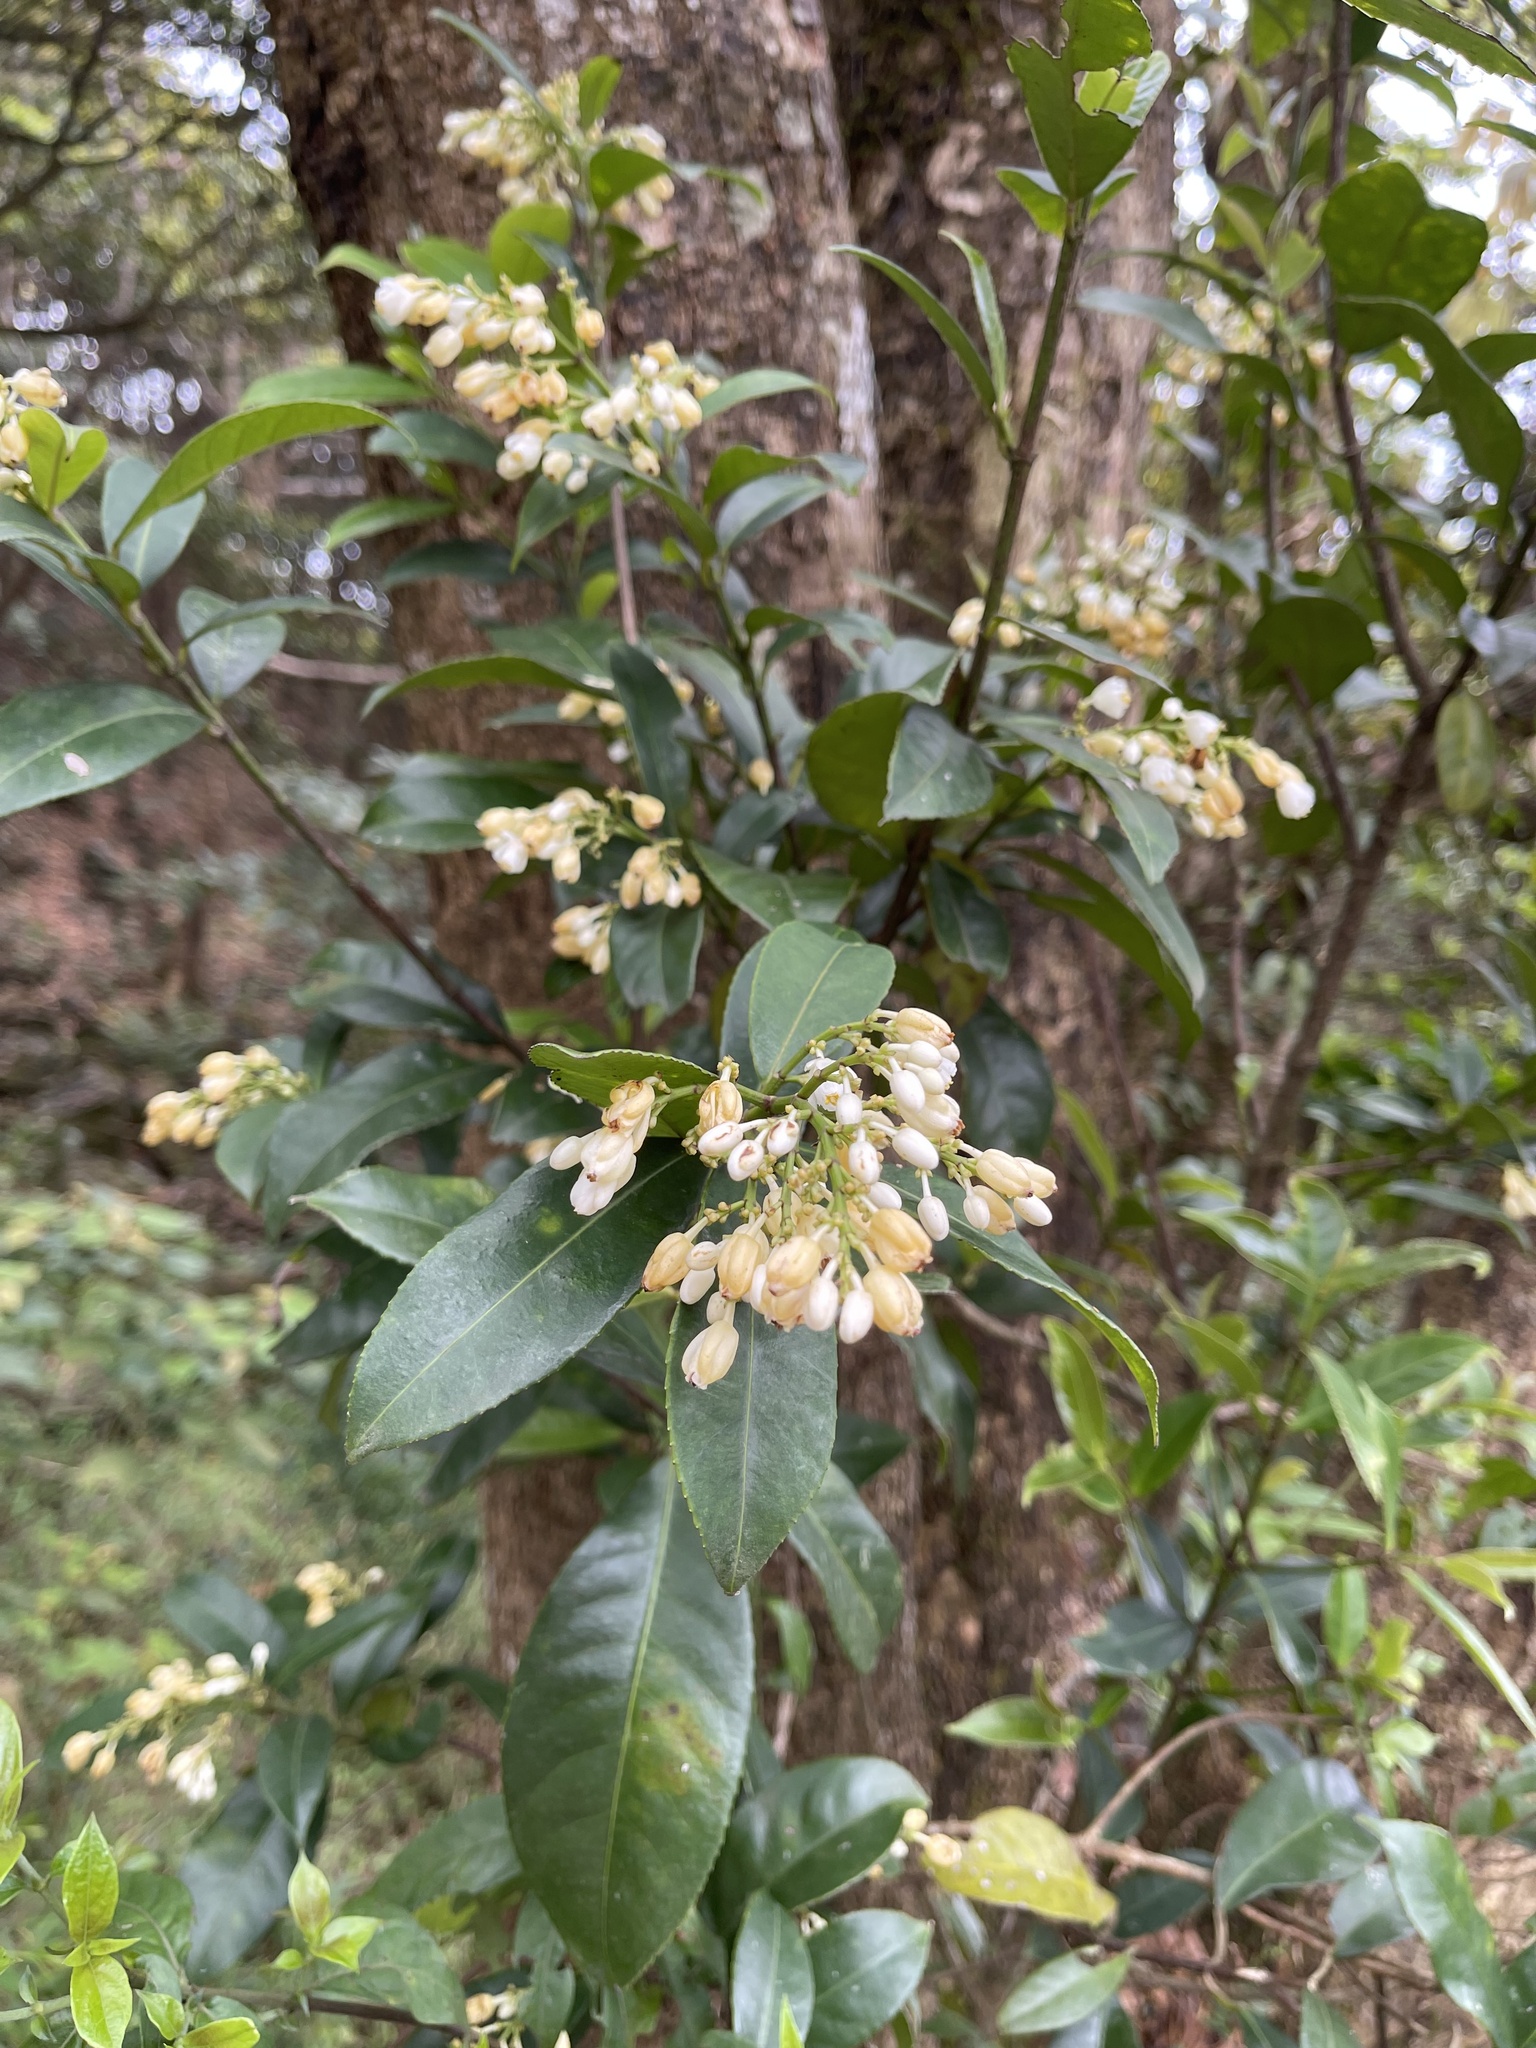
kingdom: Plantae
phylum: Tracheophyta
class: Magnoliopsida
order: Crossosomatales
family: Staphyleaceae
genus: Turpinia
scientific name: Turpinia arguta
